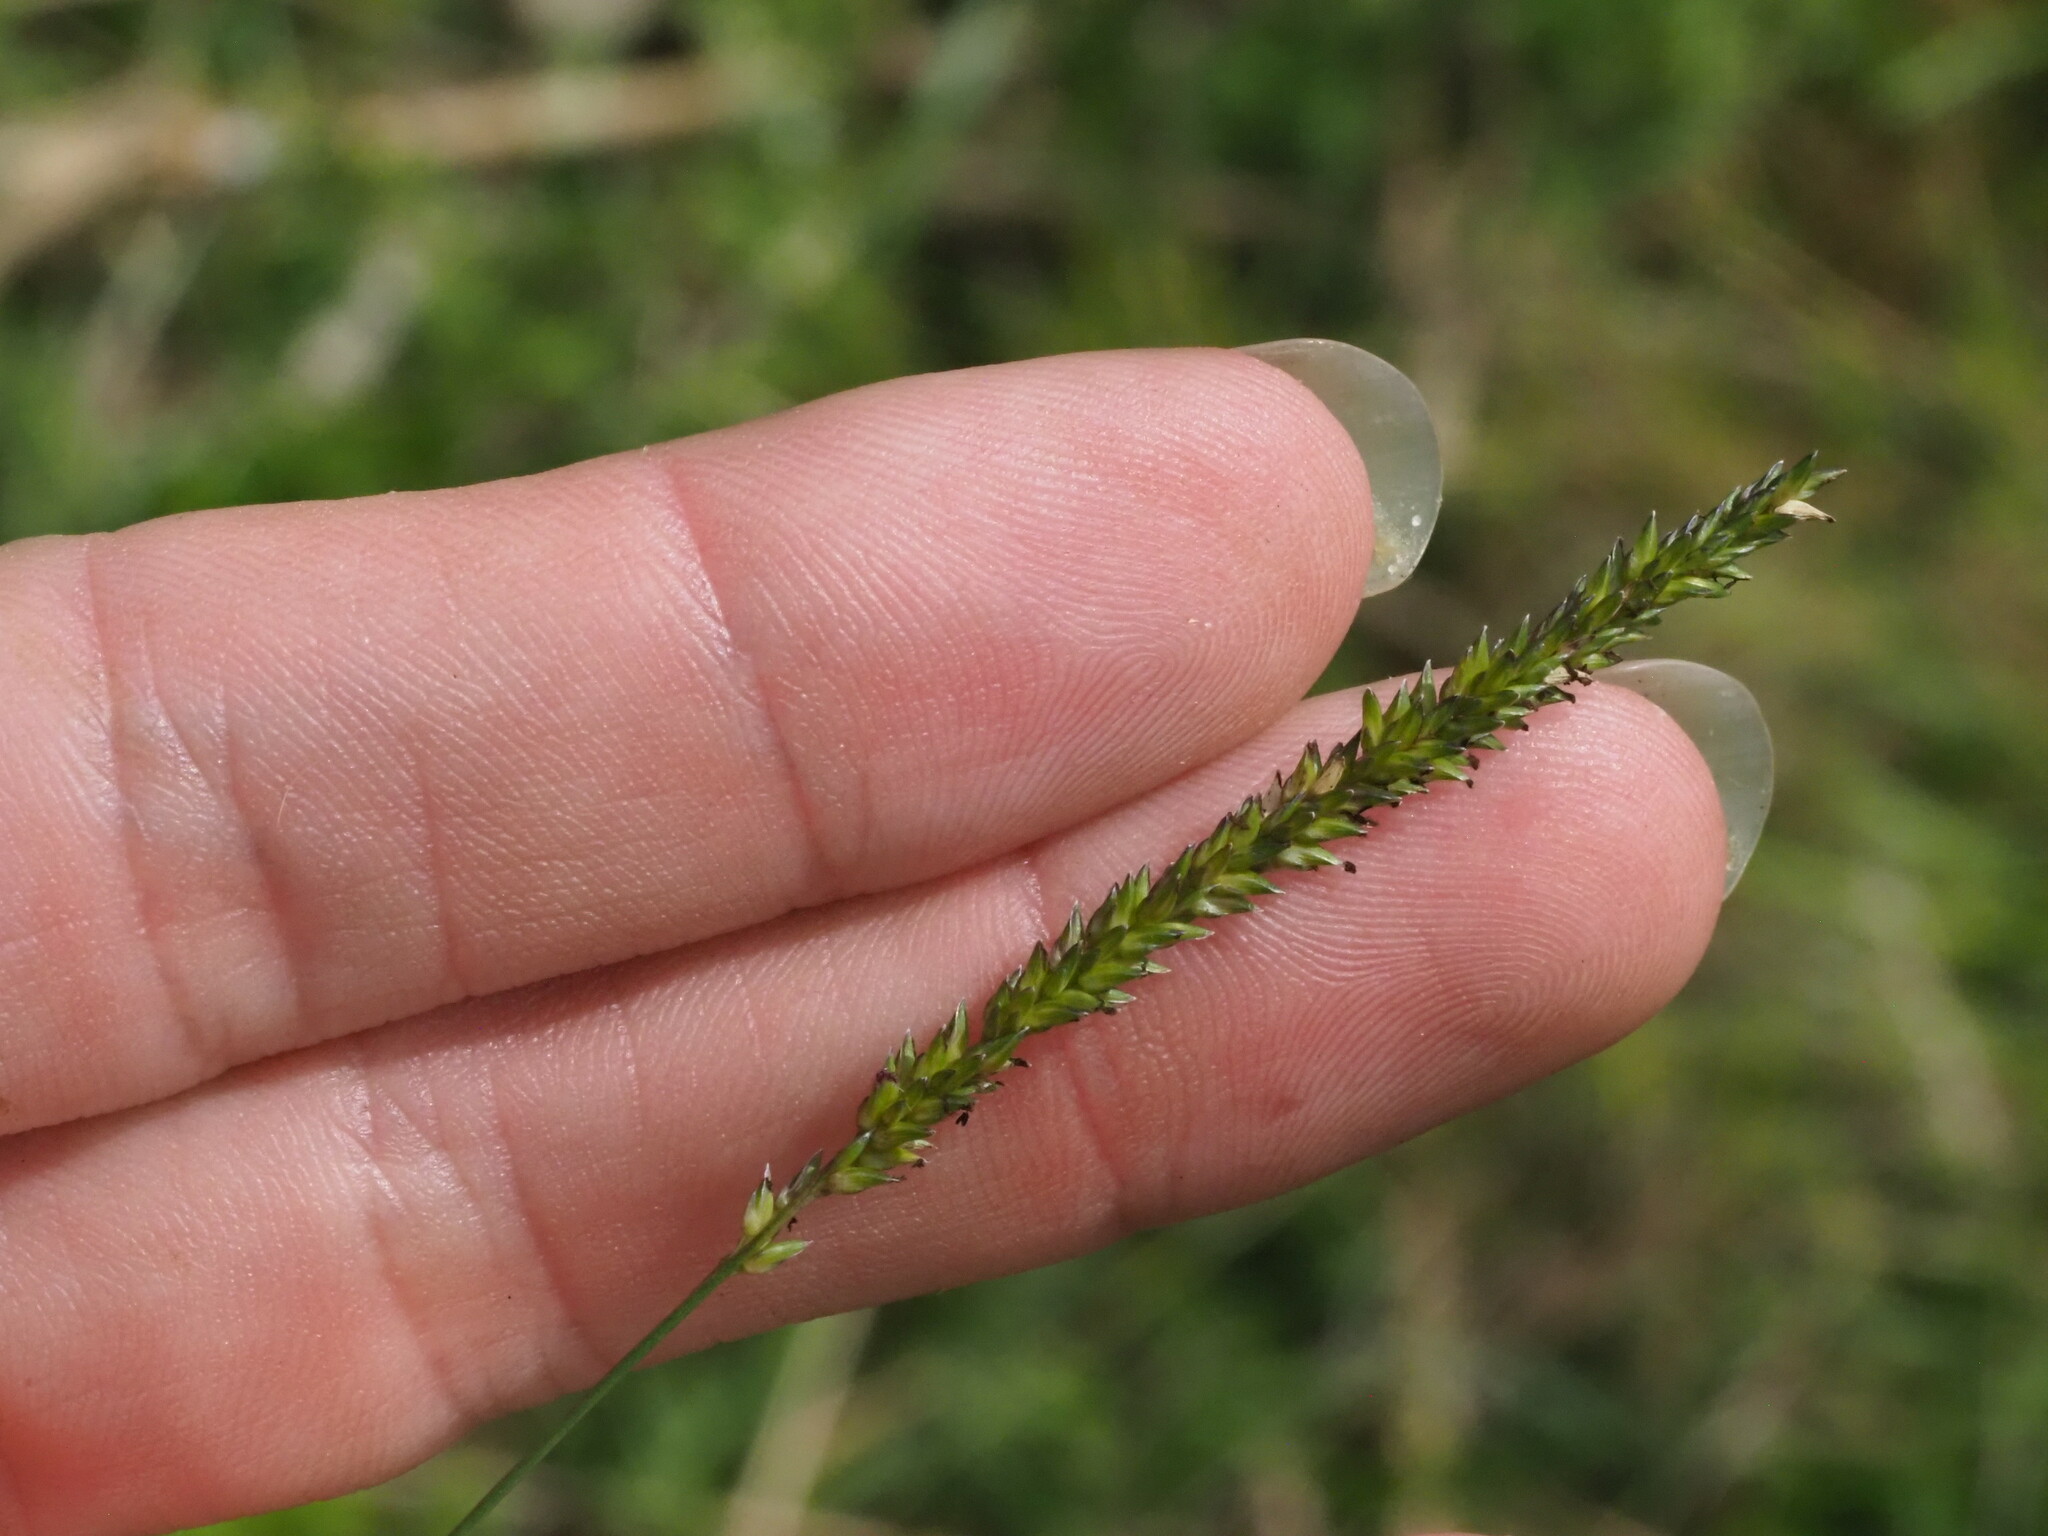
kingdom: Plantae
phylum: Tracheophyta
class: Liliopsida
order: Poales
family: Poaceae
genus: Sacciolepis
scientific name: Sacciolepis indica
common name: Glenwoodgrass
